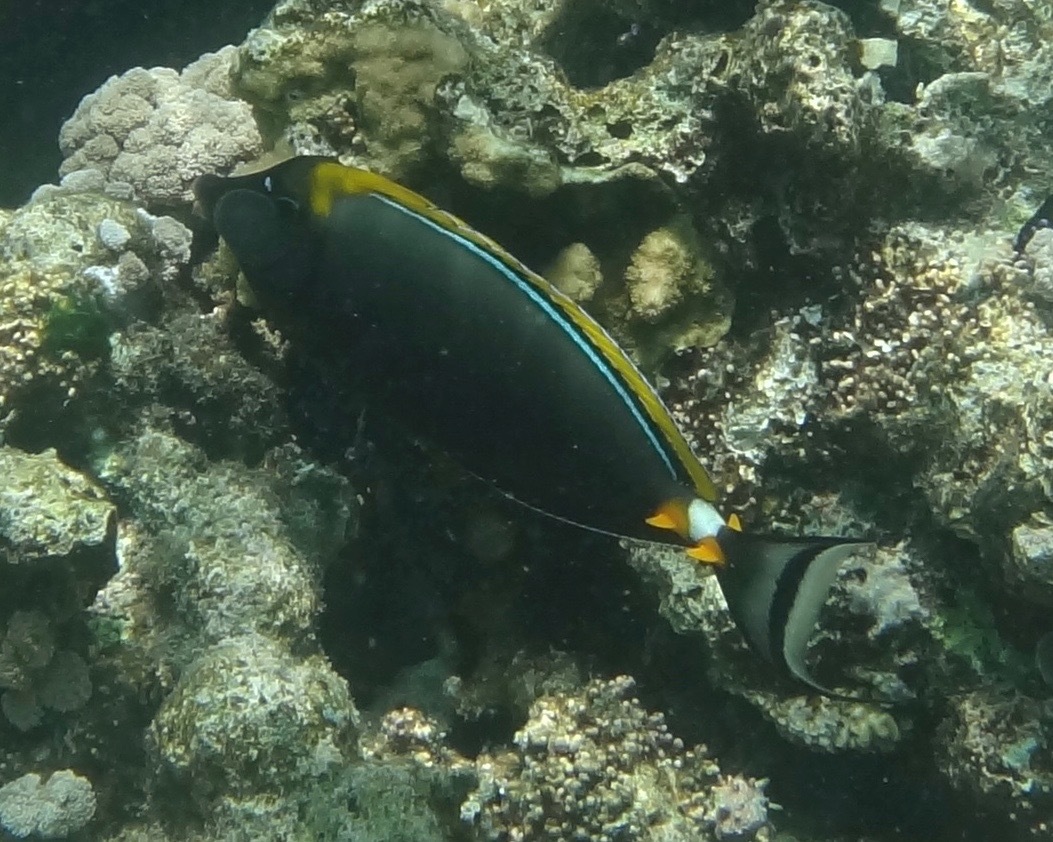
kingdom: Animalia
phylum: Chordata
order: Perciformes
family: Acanthuridae
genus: Naso
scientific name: Naso elegans
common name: Orangespine unicornfish
